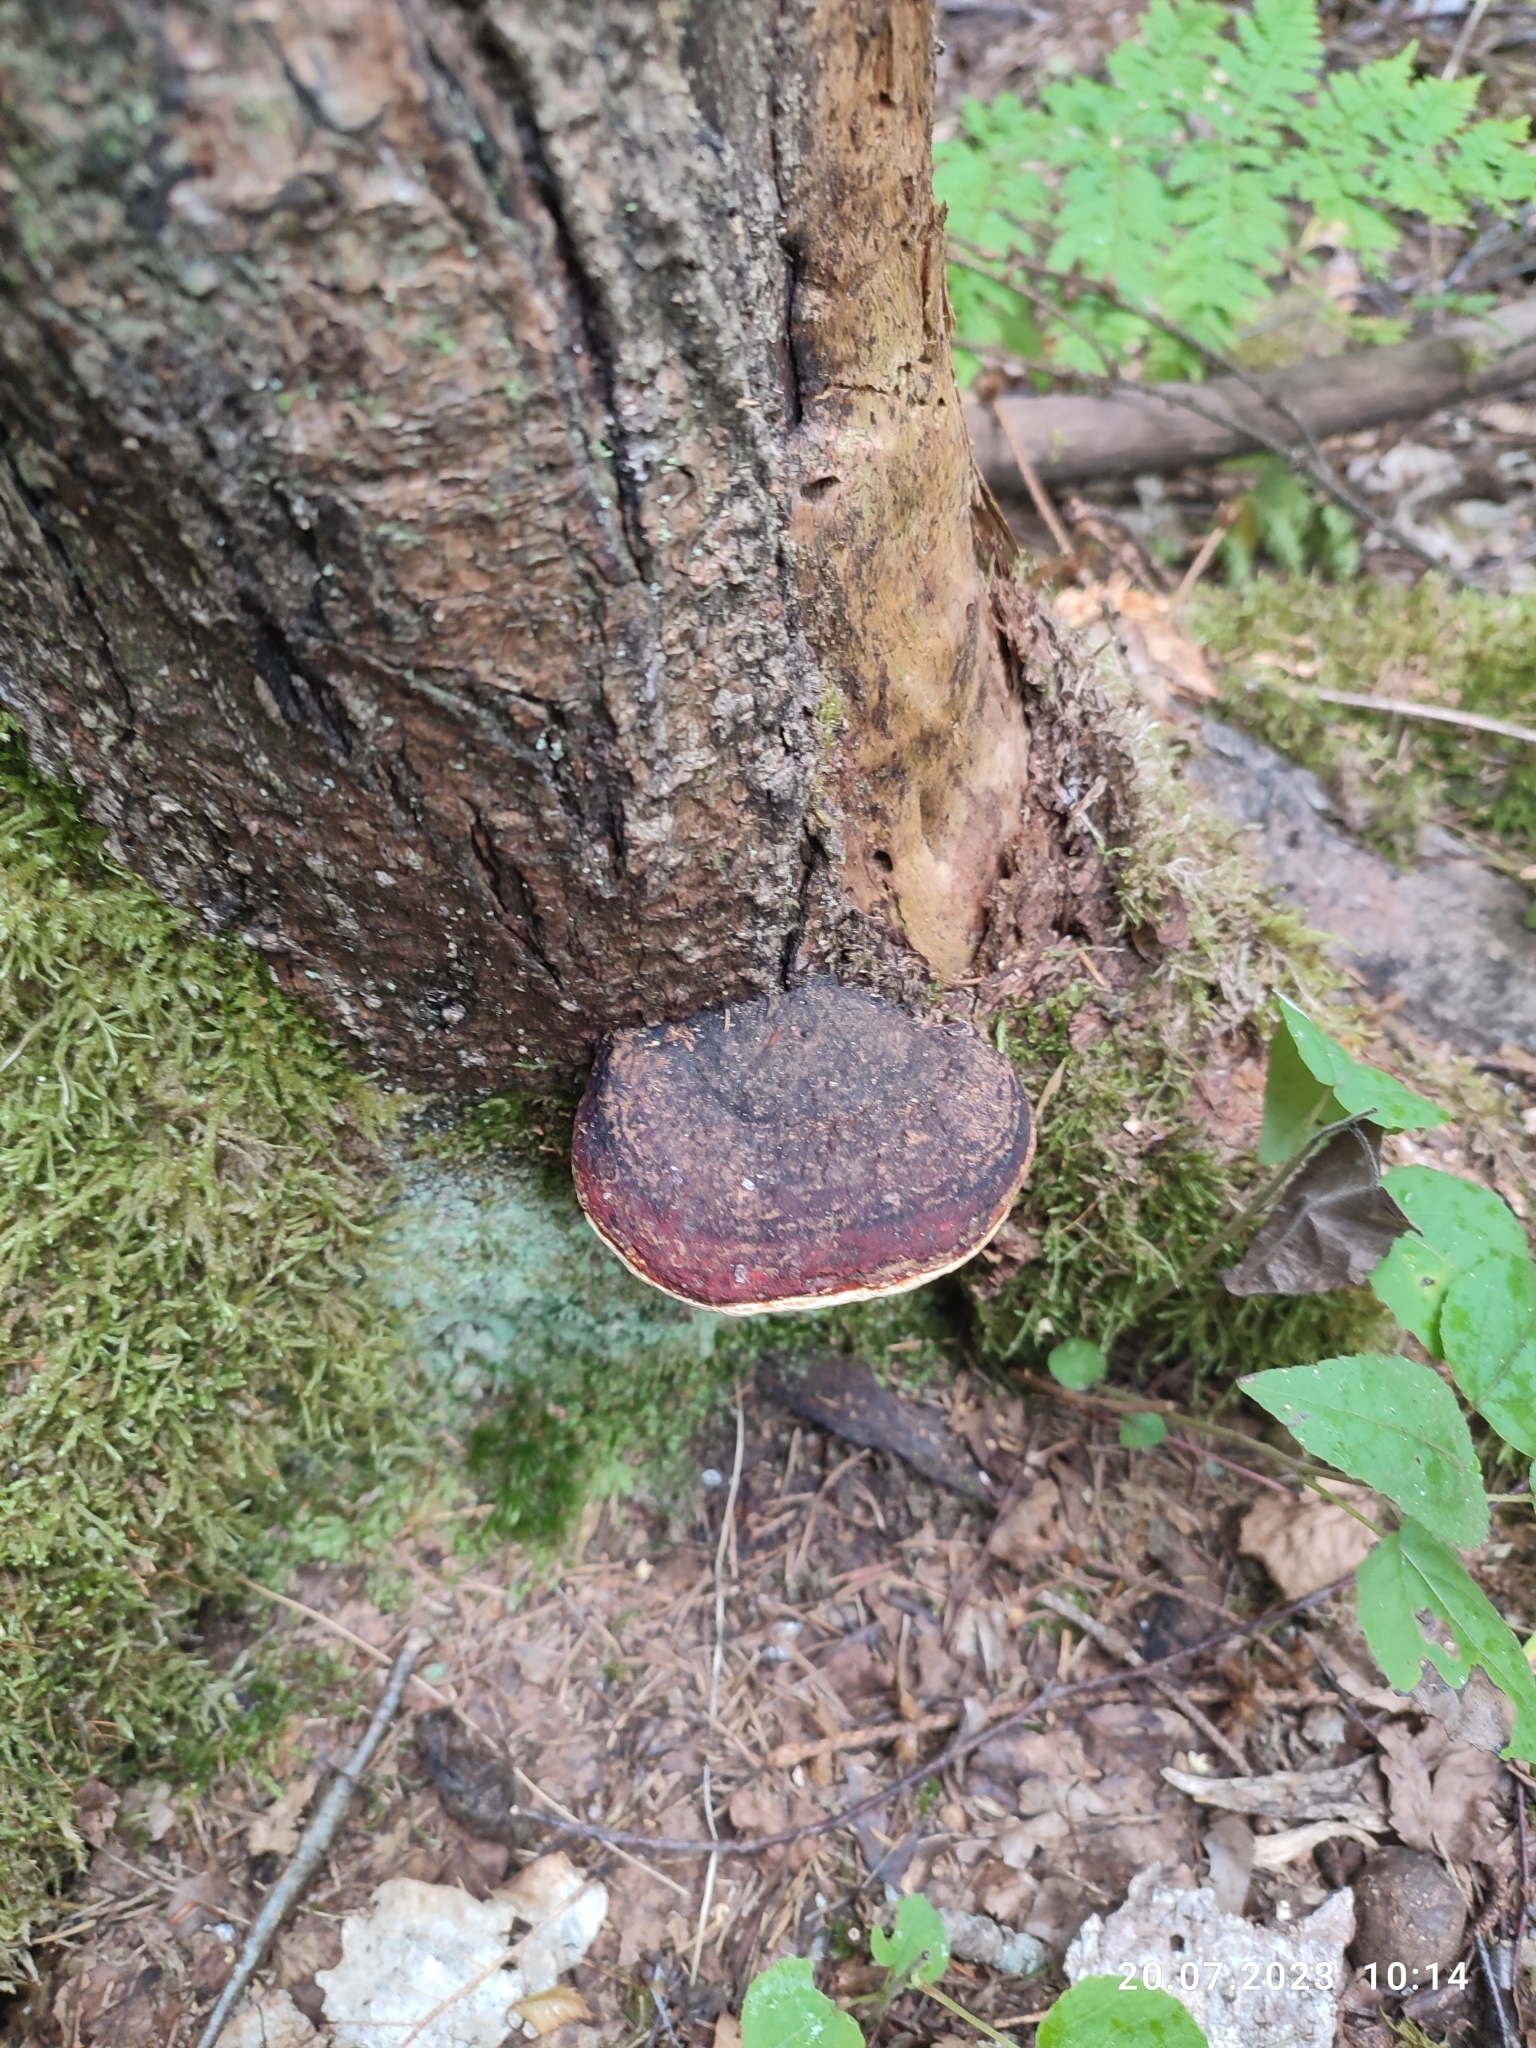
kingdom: Fungi
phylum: Basidiomycota
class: Agaricomycetes
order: Polyporales
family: Fomitopsidaceae
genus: Fomitopsis
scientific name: Fomitopsis pinicola
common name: Red-belted bracket
